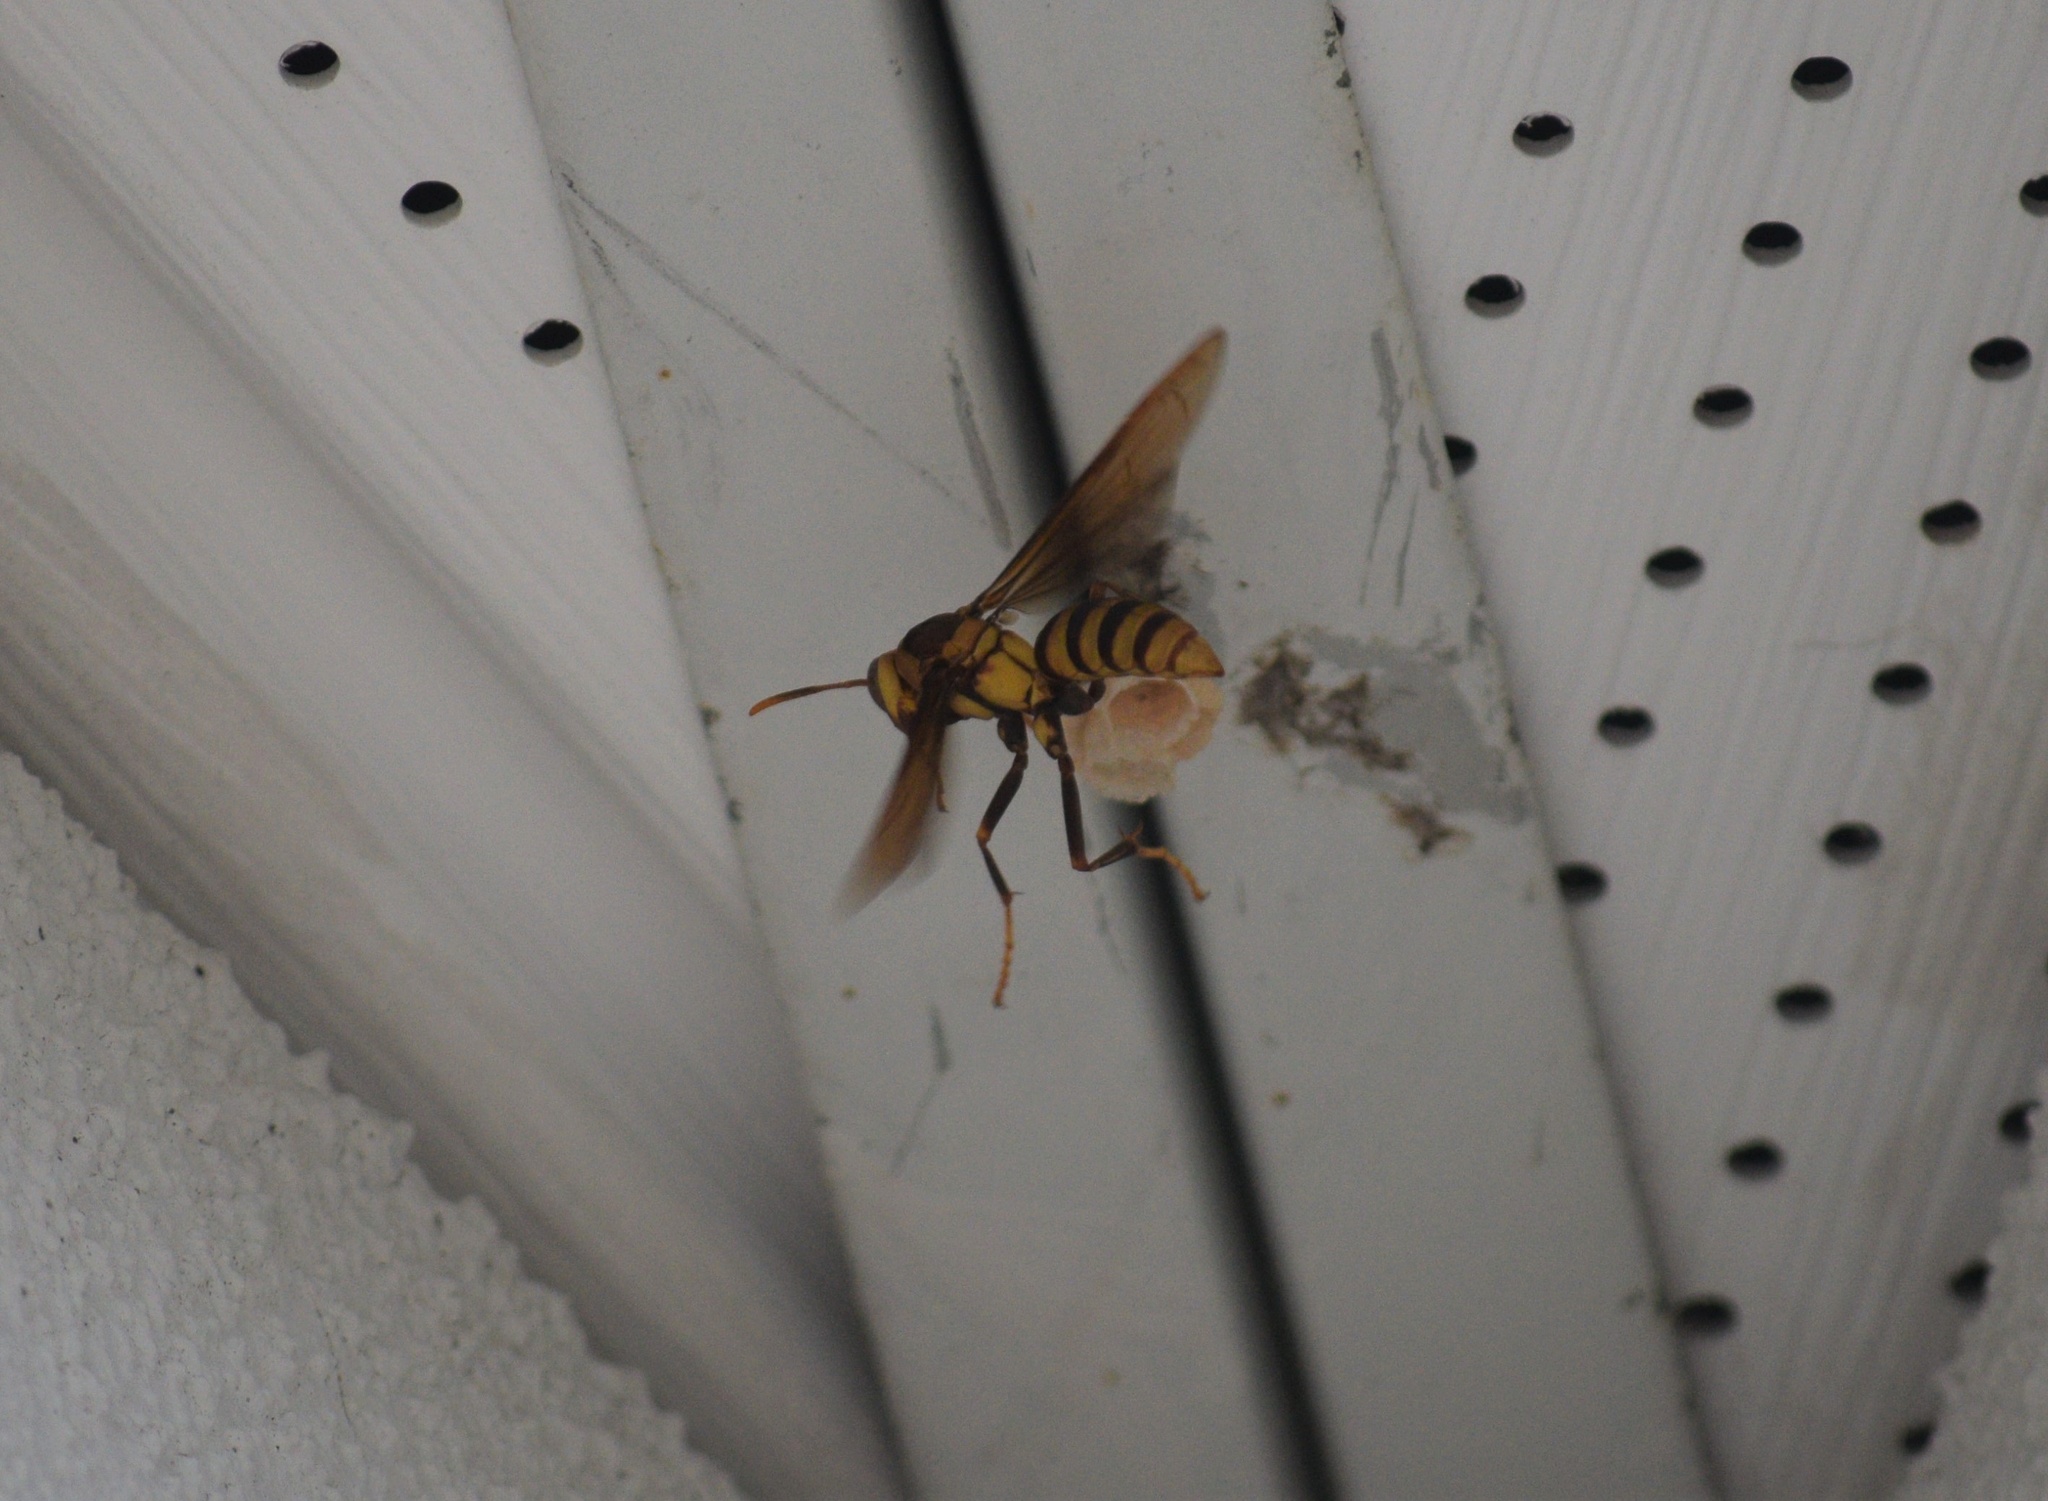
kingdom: Animalia
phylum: Arthropoda
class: Insecta
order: Hymenoptera
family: Eumenidae
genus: Polistes
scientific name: Polistes major
